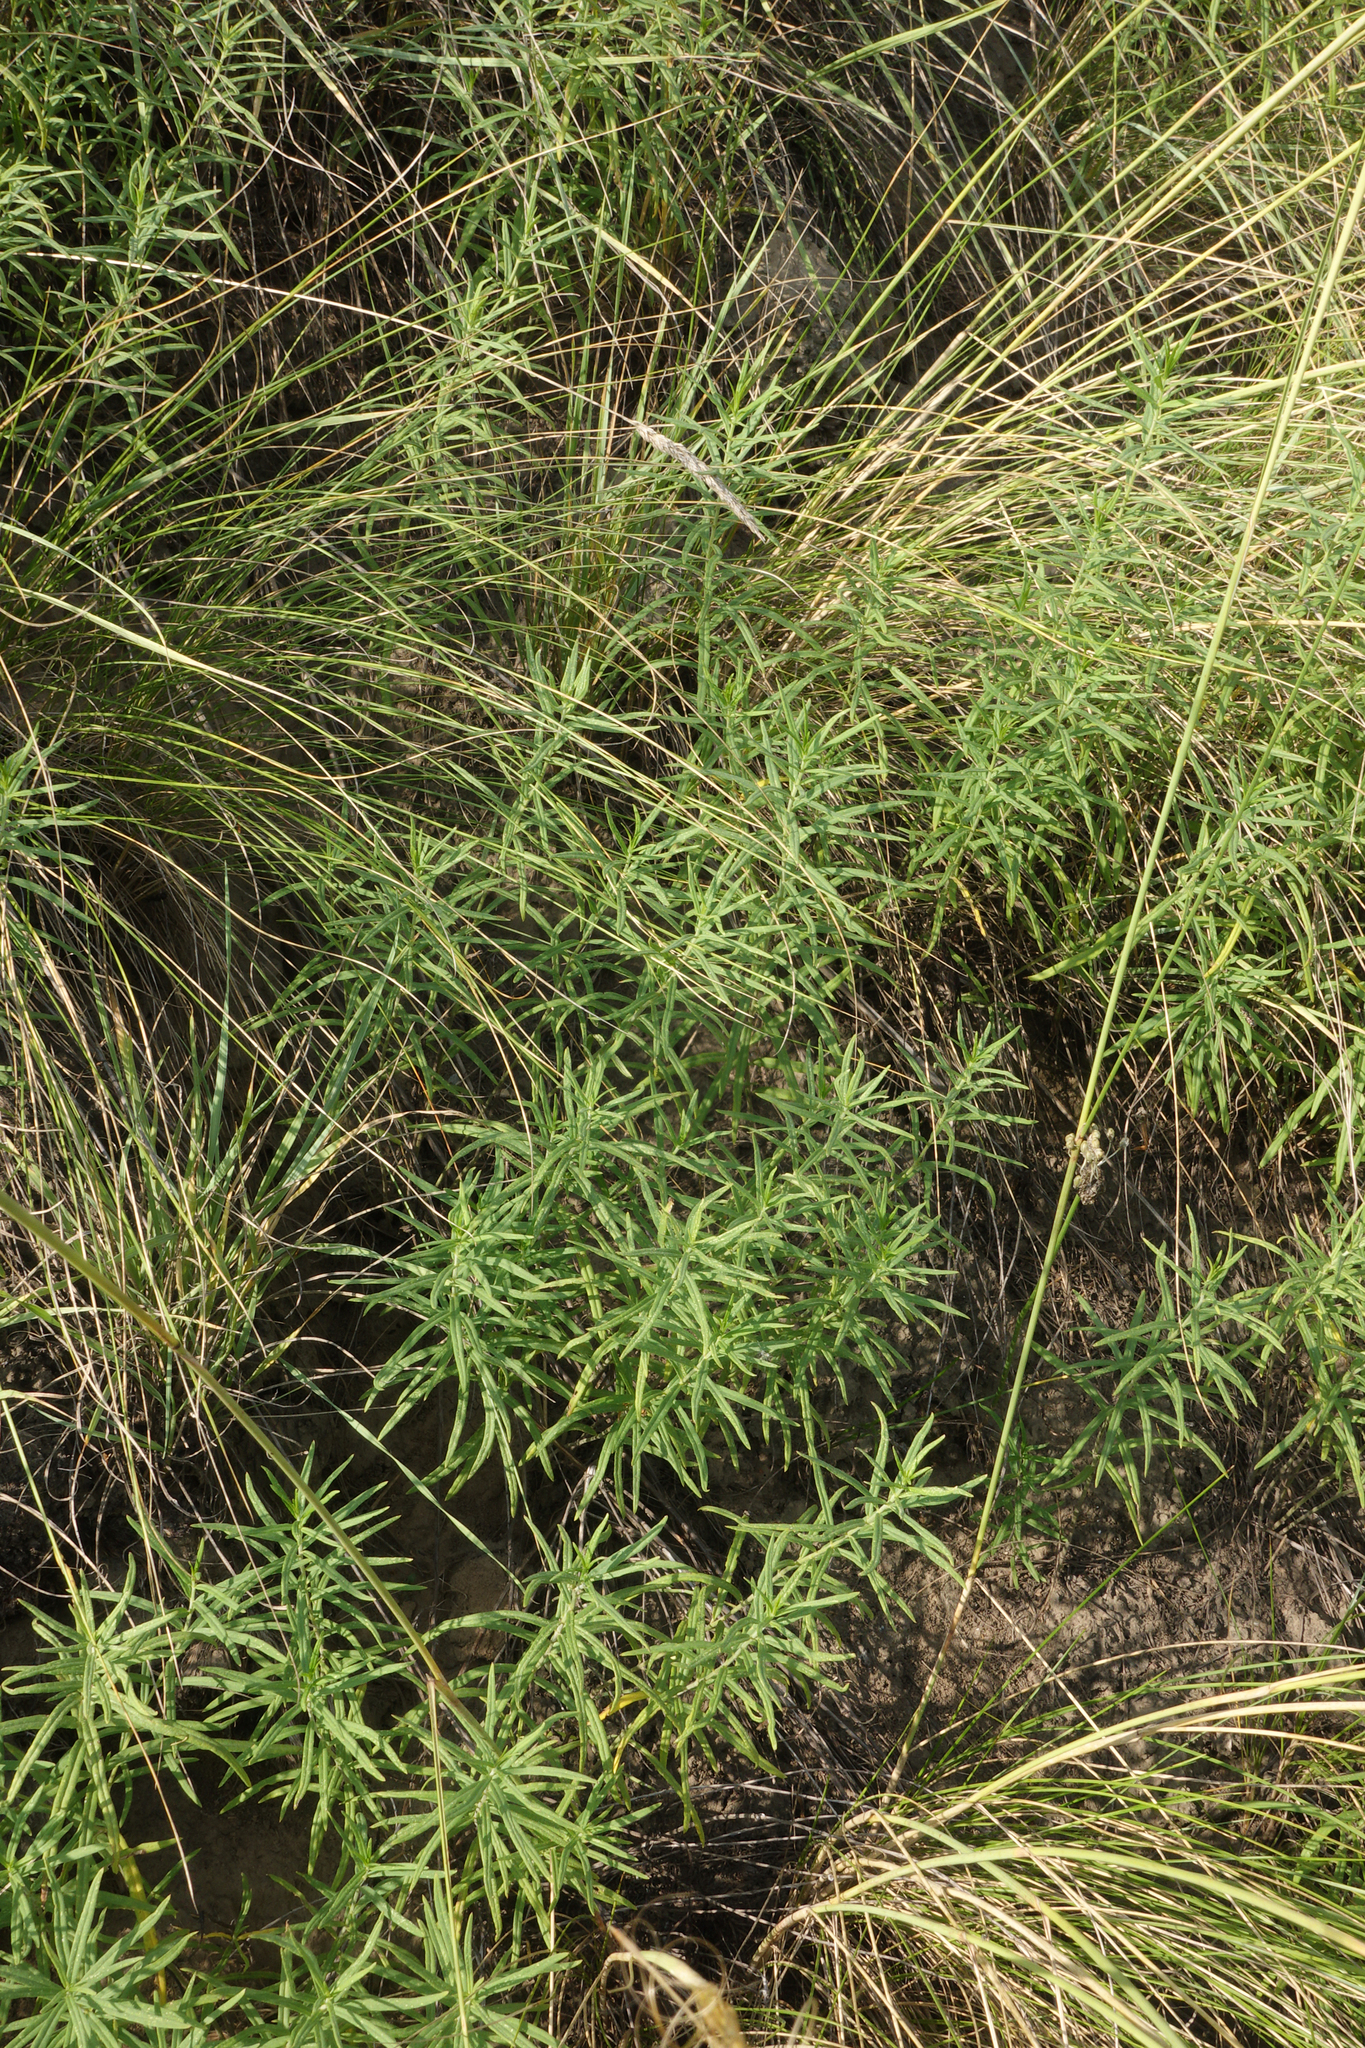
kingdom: Plantae
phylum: Tracheophyta
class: Magnoliopsida
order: Gentianales
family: Apocynaceae
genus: Cynanchum
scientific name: Cynanchum thesioides
